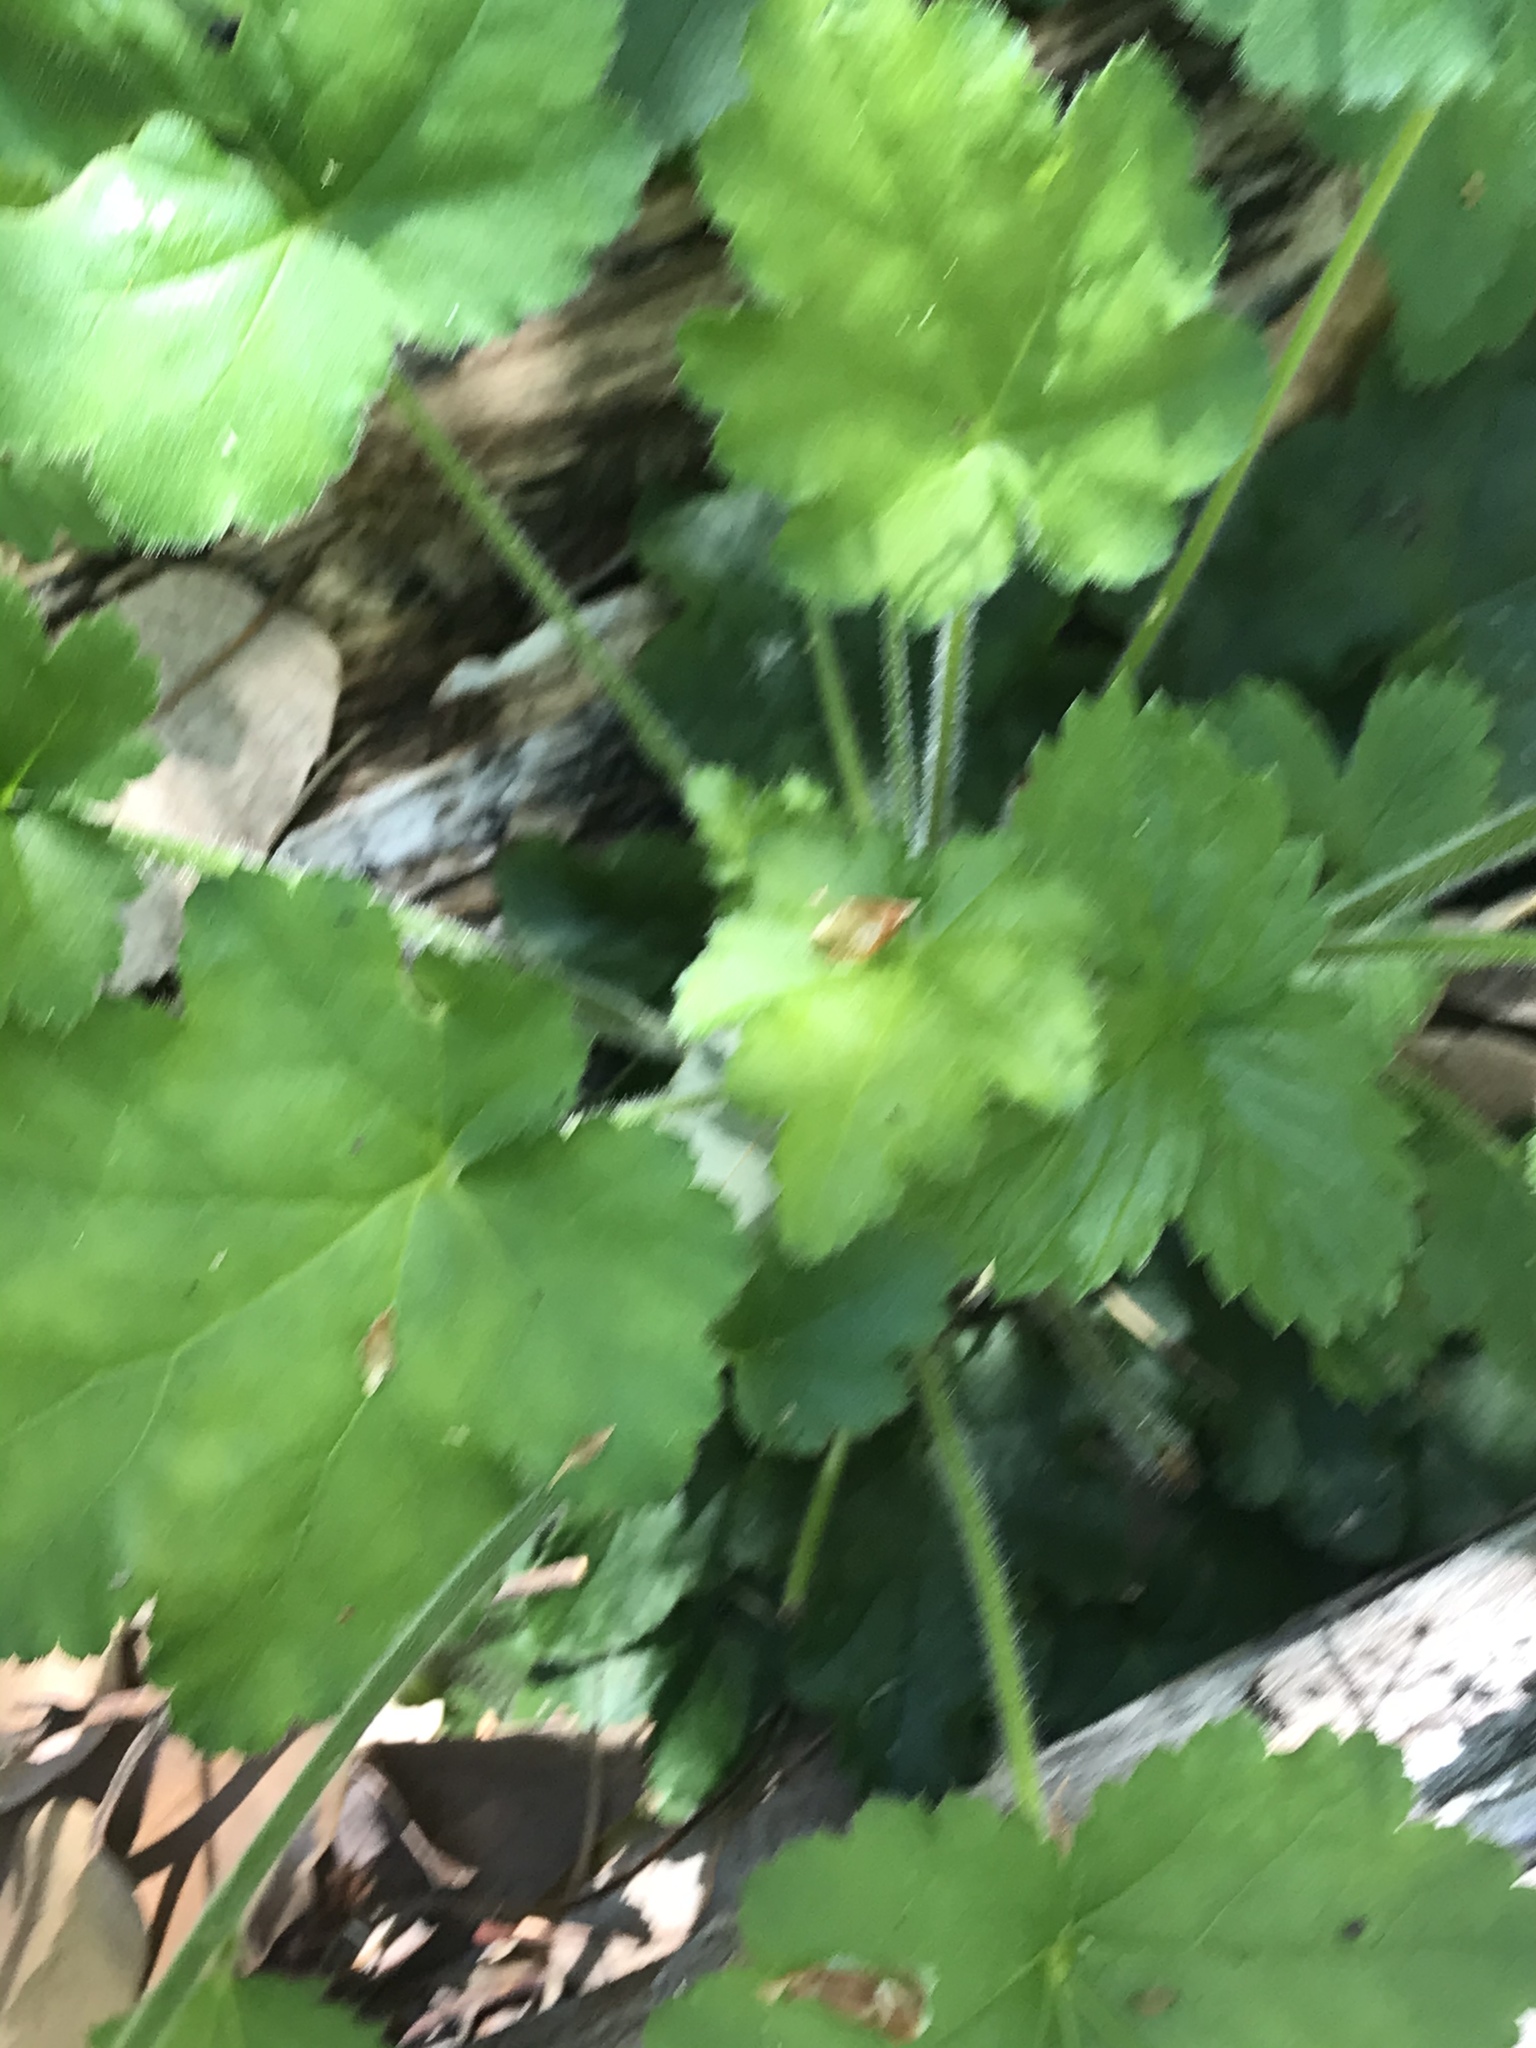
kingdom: Plantae
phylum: Tracheophyta
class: Magnoliopsida
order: Saxifragales
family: Saxifragaceae
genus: Heuchera
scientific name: Heuchera micrantha
